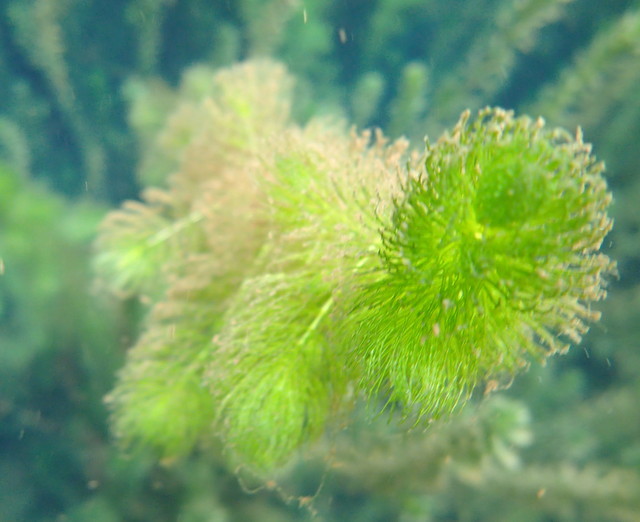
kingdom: Plantae
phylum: Tracheophyta
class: Magnoliopsida
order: Ceratophyllales
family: Ceratophyllaceae
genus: Ceratophyllum
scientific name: Ceratophyllum demersum
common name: Rigid hornwort
